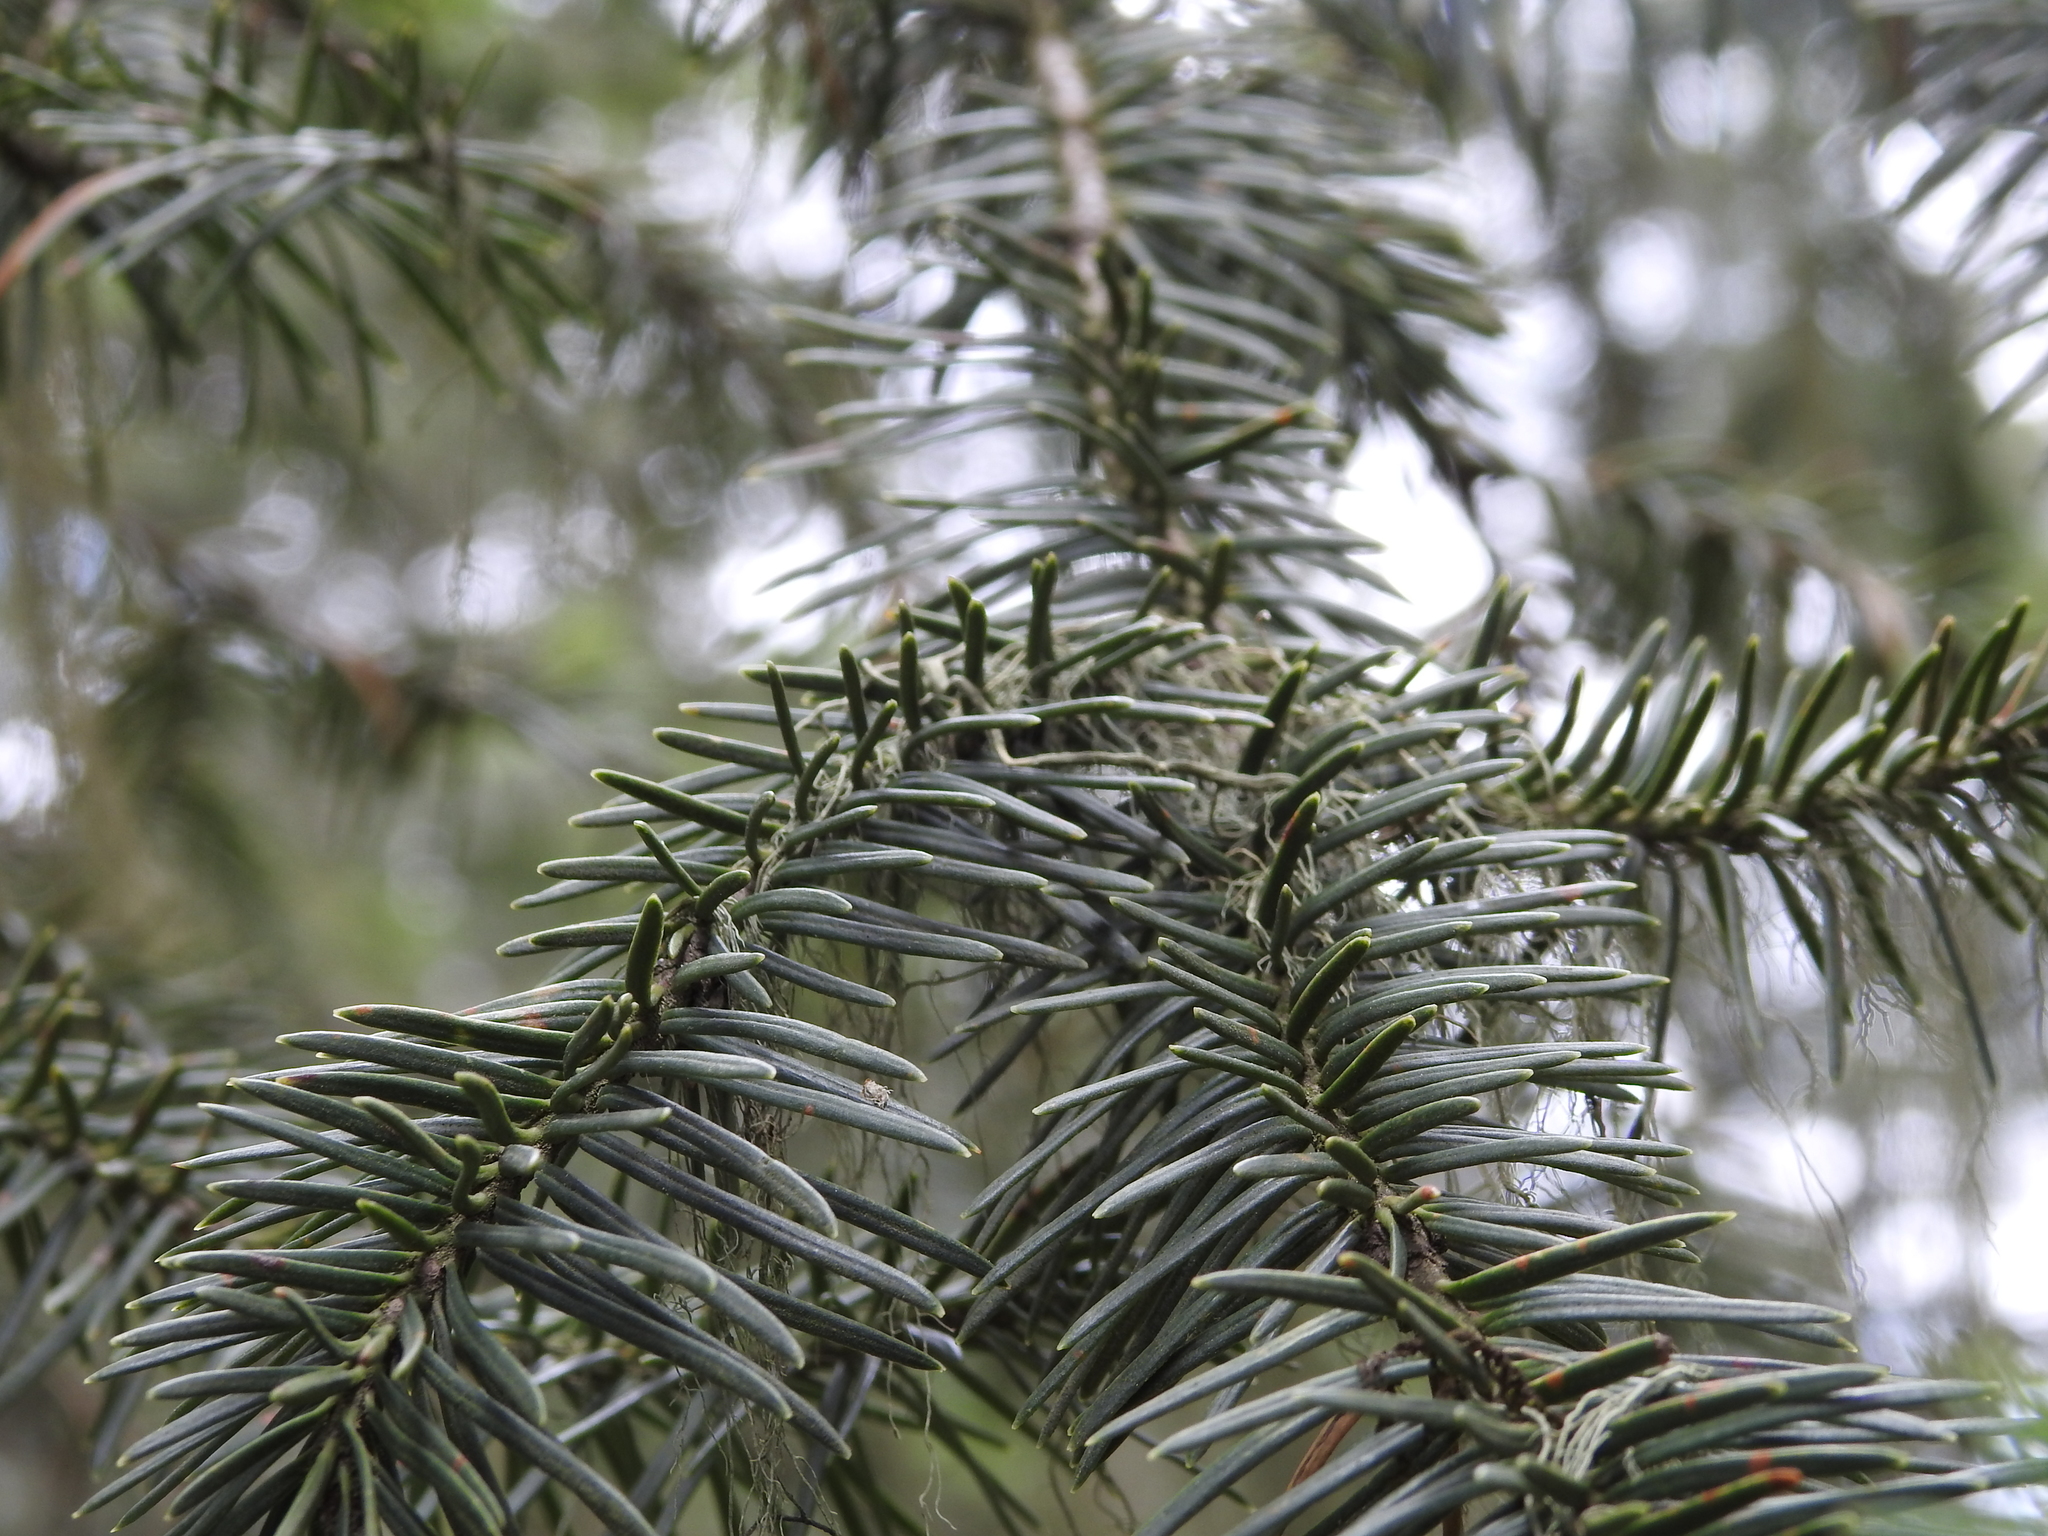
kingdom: Plantae
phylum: Tracheophyta
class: Pinopsida
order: Pinales
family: Pinaceae
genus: Abies
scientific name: Abies religiosa
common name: Sacred fir
